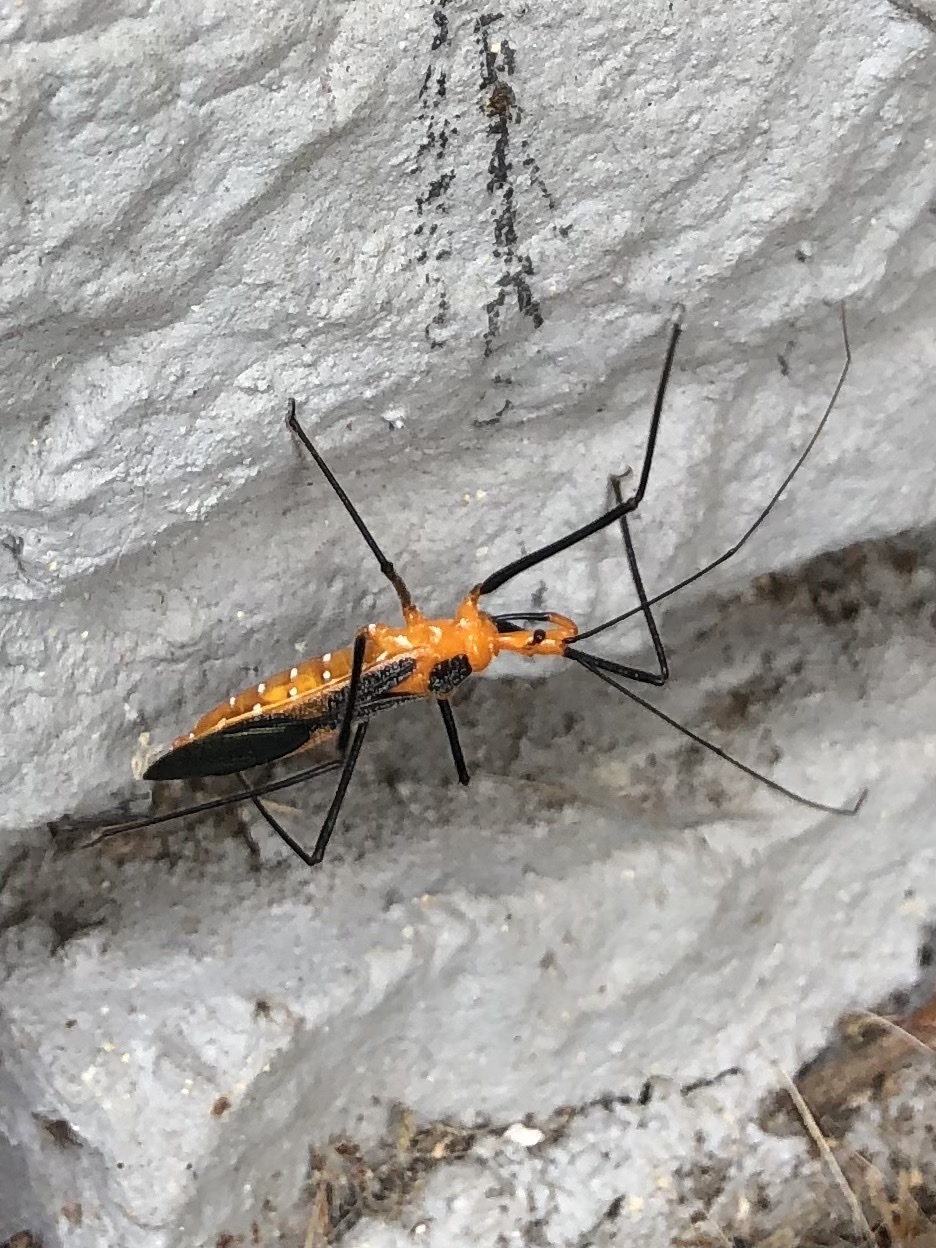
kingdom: Animalia
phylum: Arthropoda
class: Insecta
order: Hemiptera
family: Reduviidae
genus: Zelus
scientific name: Zelus longipes
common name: Milkweed assassin bug
